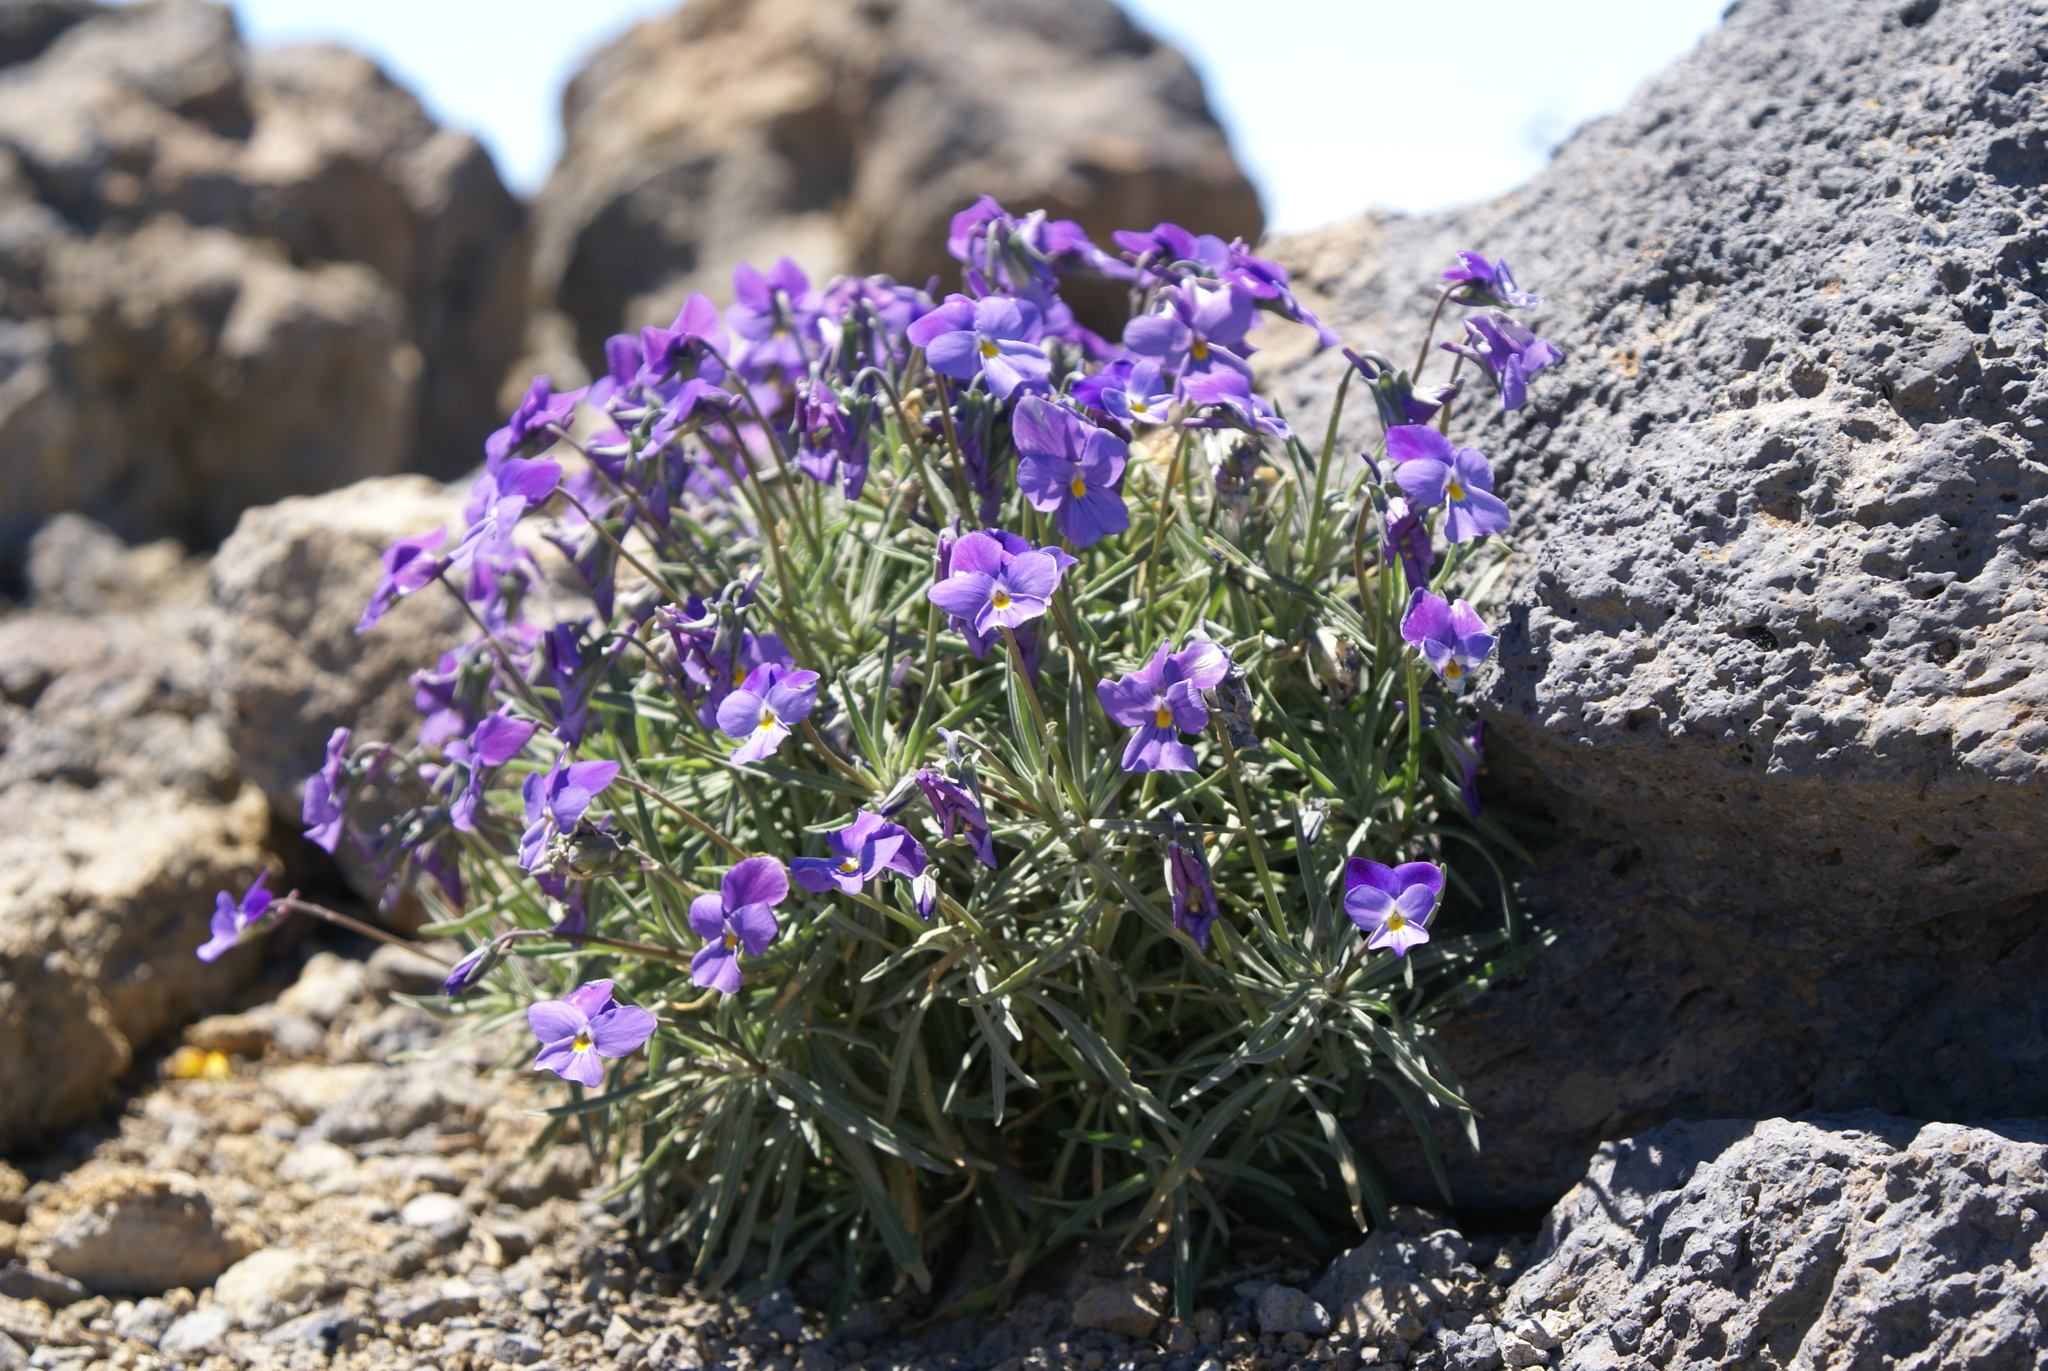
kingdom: Plantae
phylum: Tracheophyta
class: Magnoliopsida
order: Malpighiales
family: Violaceae
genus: Viola
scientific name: Viola palmensis
